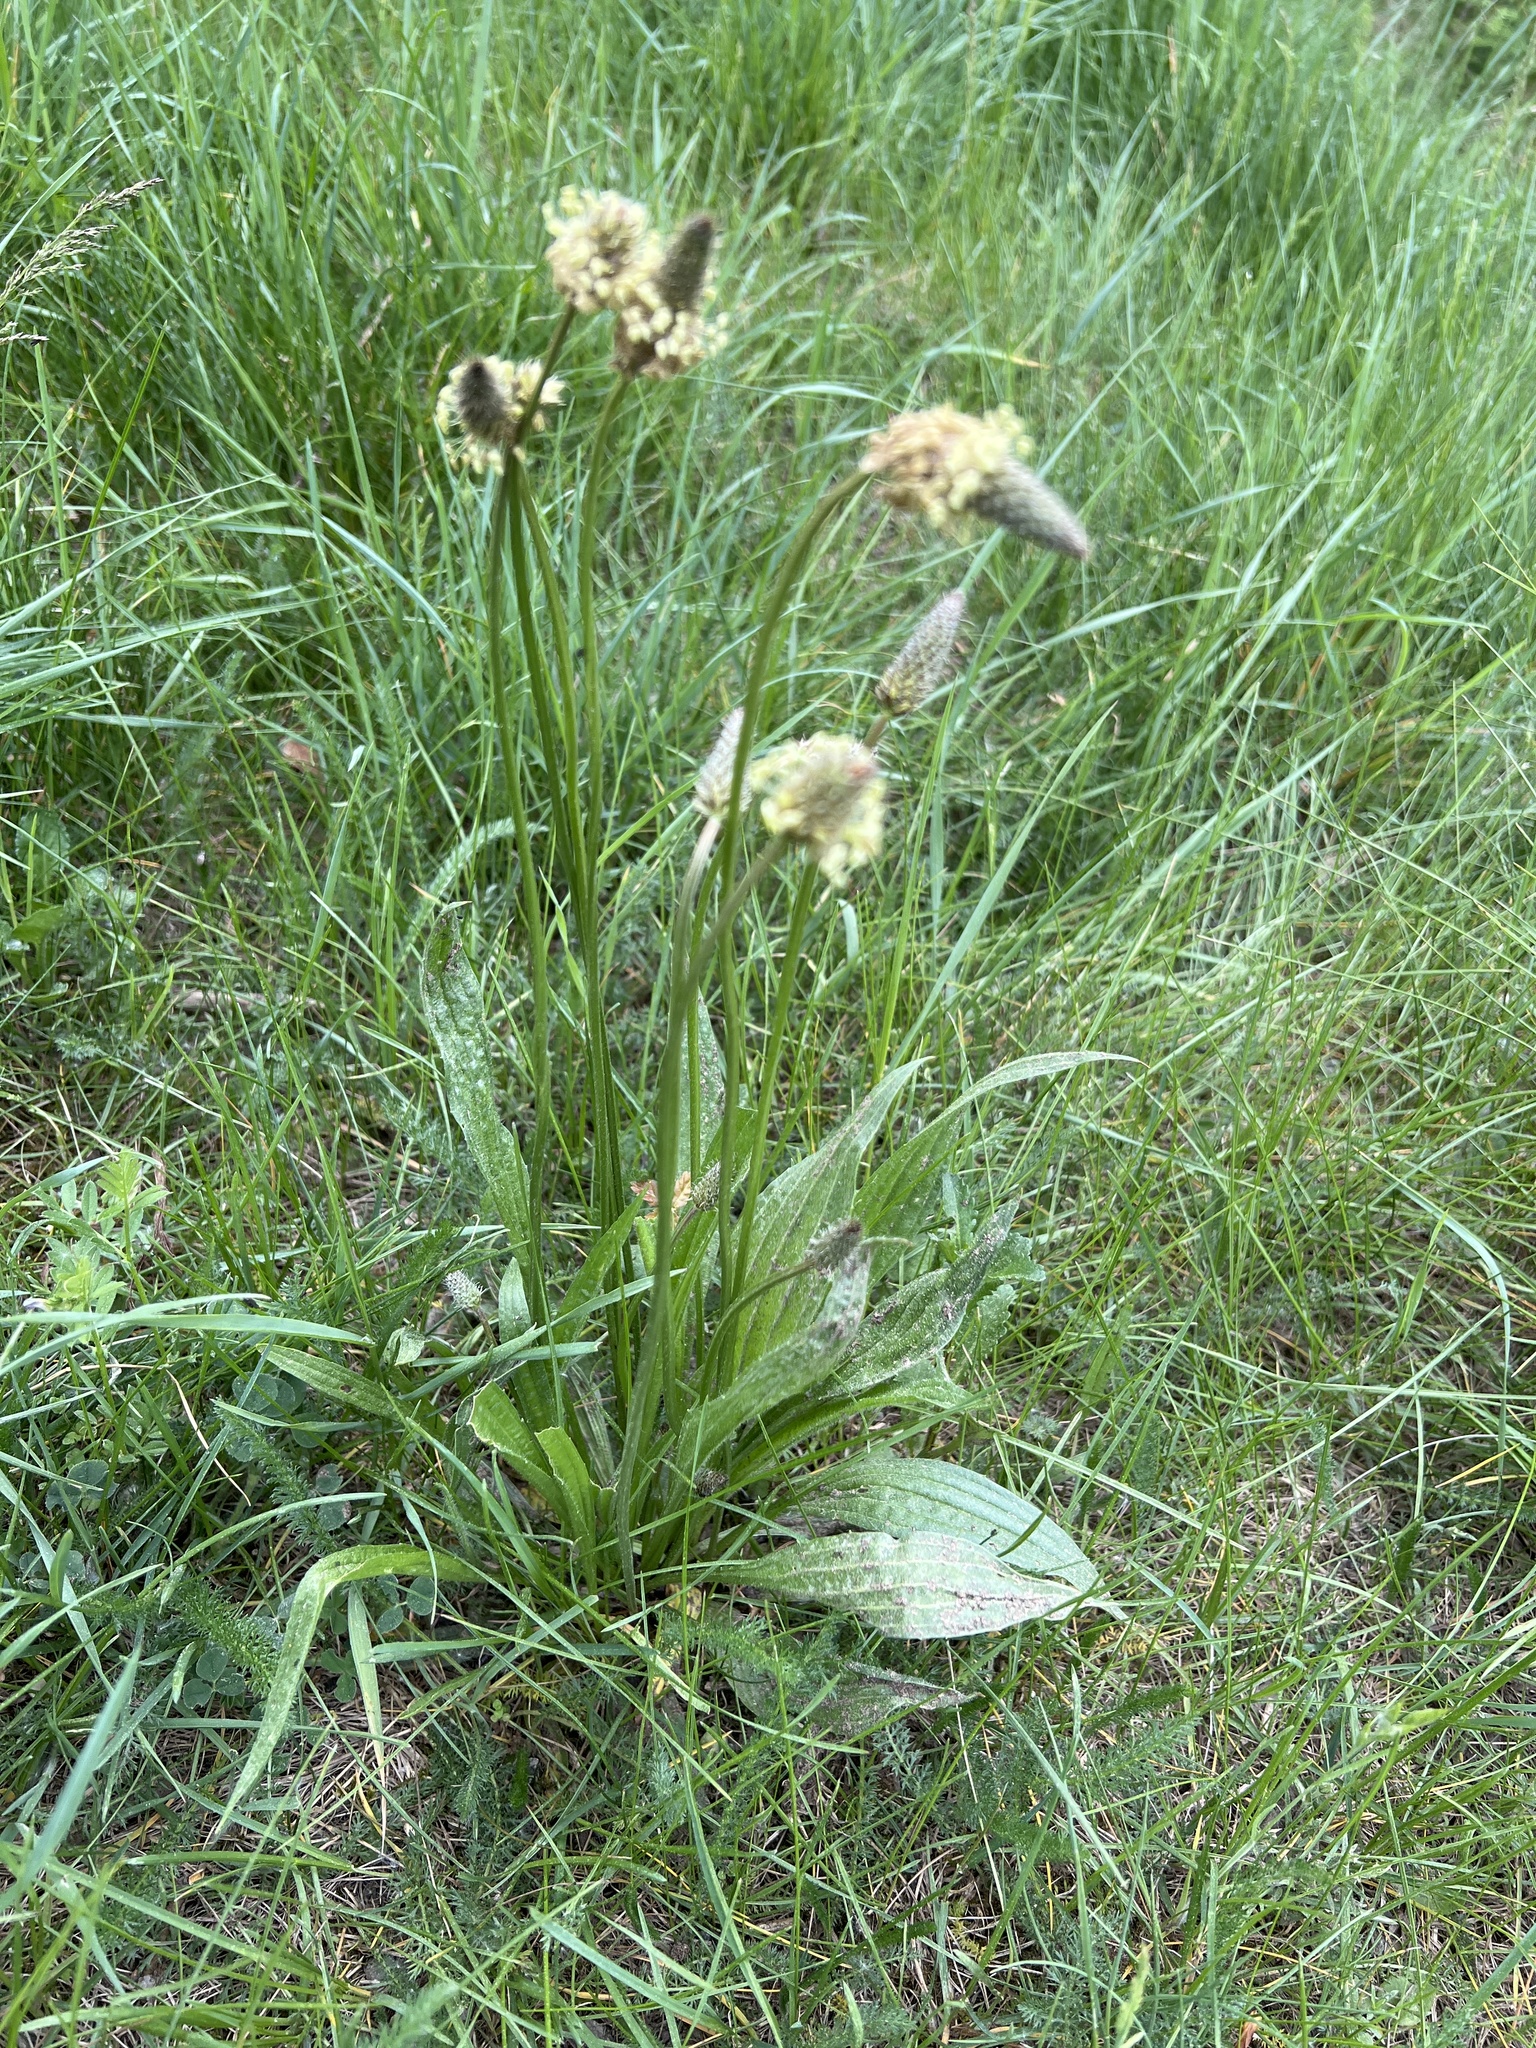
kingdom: Plantae
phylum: Tracheophyta
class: Magnoliopsida
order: Lamiales
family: Plantaginaceae
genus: Plantago
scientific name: Plantago lanceolata
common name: Ribwort plantain
